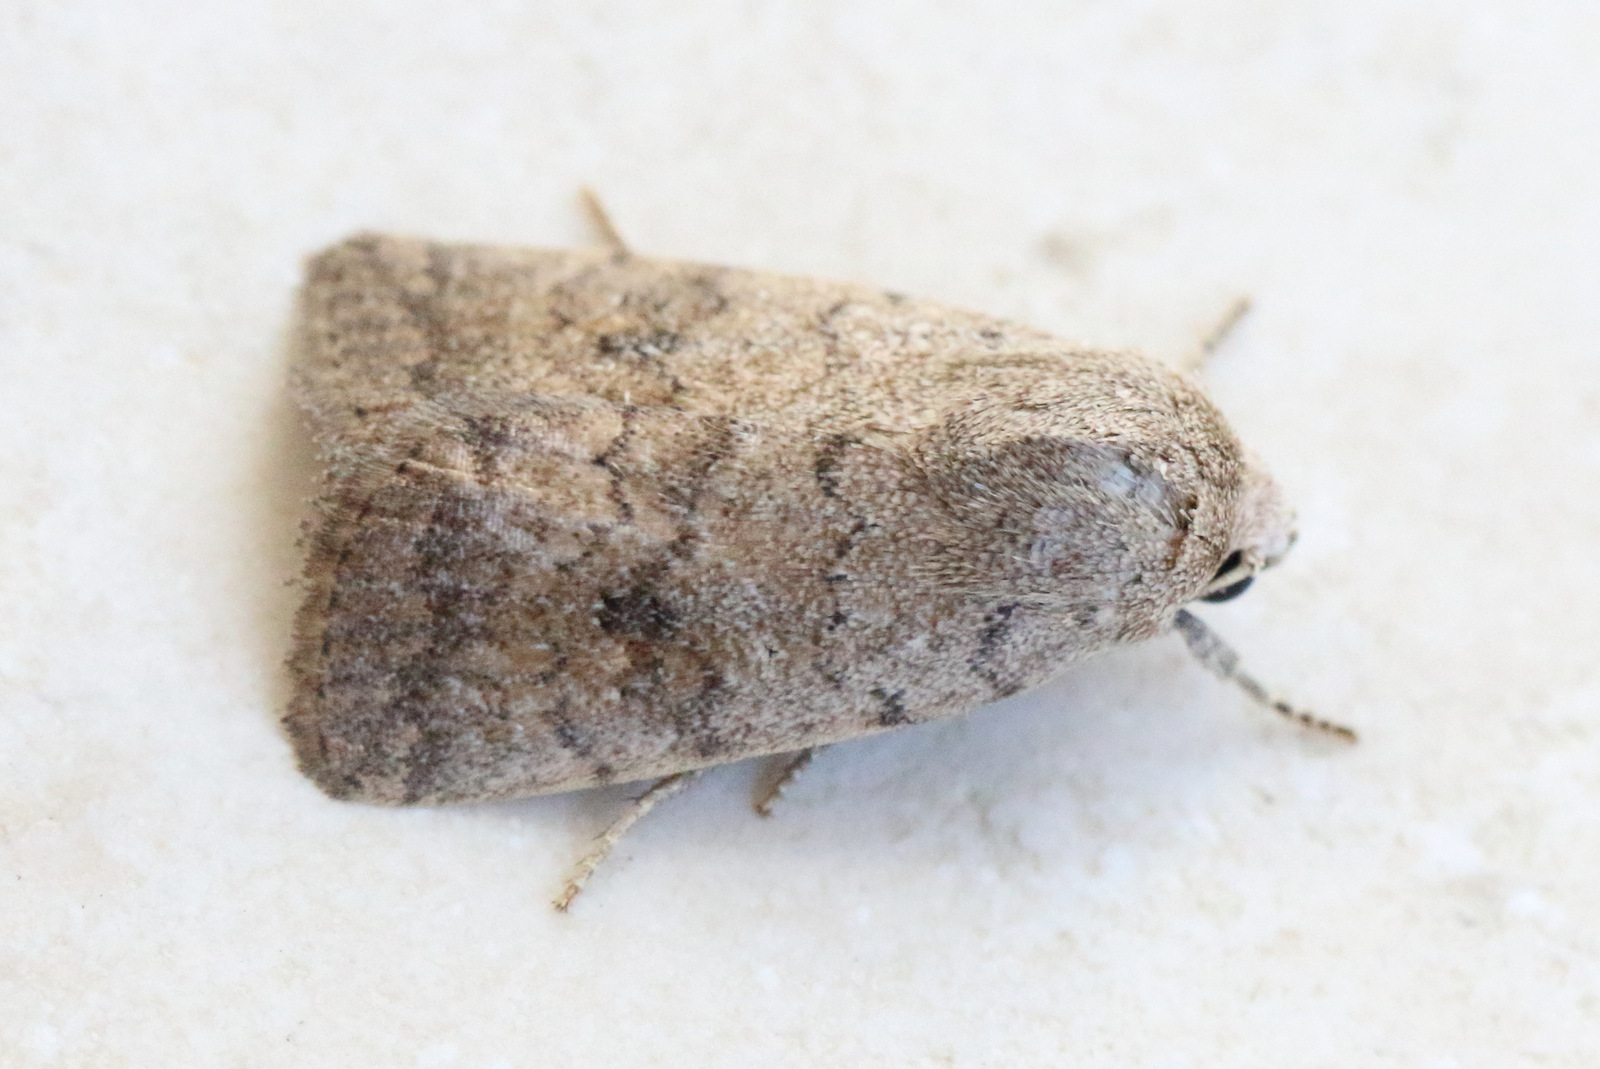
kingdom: Animalia
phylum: Arthropoda
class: Insecta
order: Lepidoptera
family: Noctuidae
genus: Athetis
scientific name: Athetis reclusa
